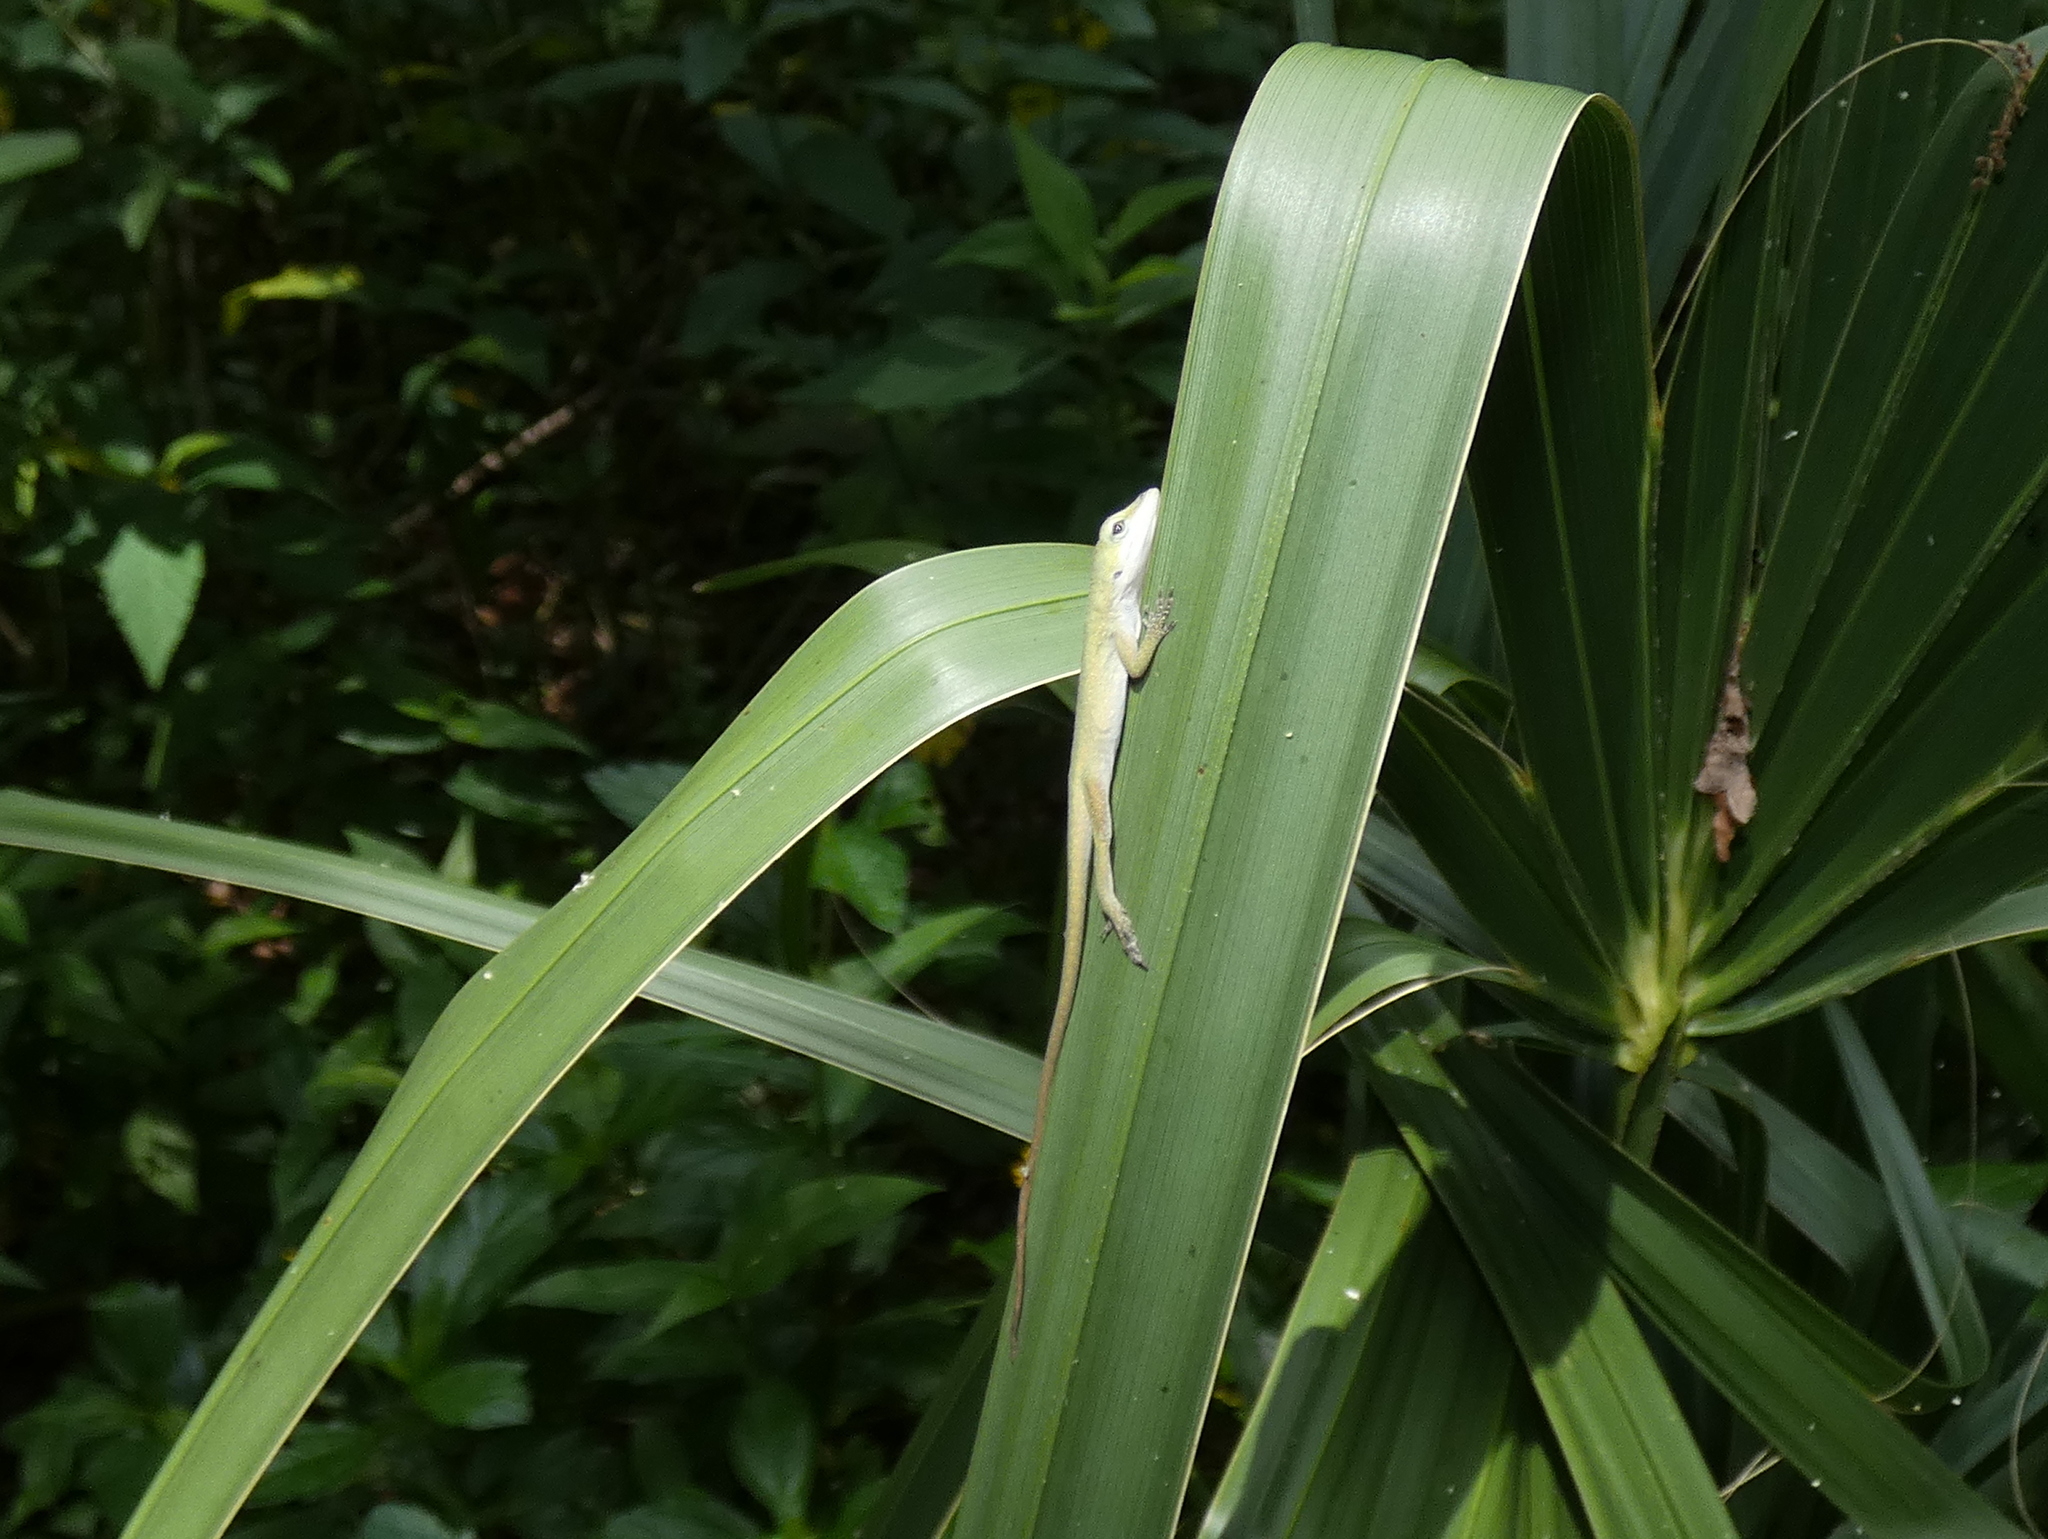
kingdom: Animalia
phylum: Chordata
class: Squamata
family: Dactyloidae
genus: Anolis
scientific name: Anolis carolinensis
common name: Green anole
